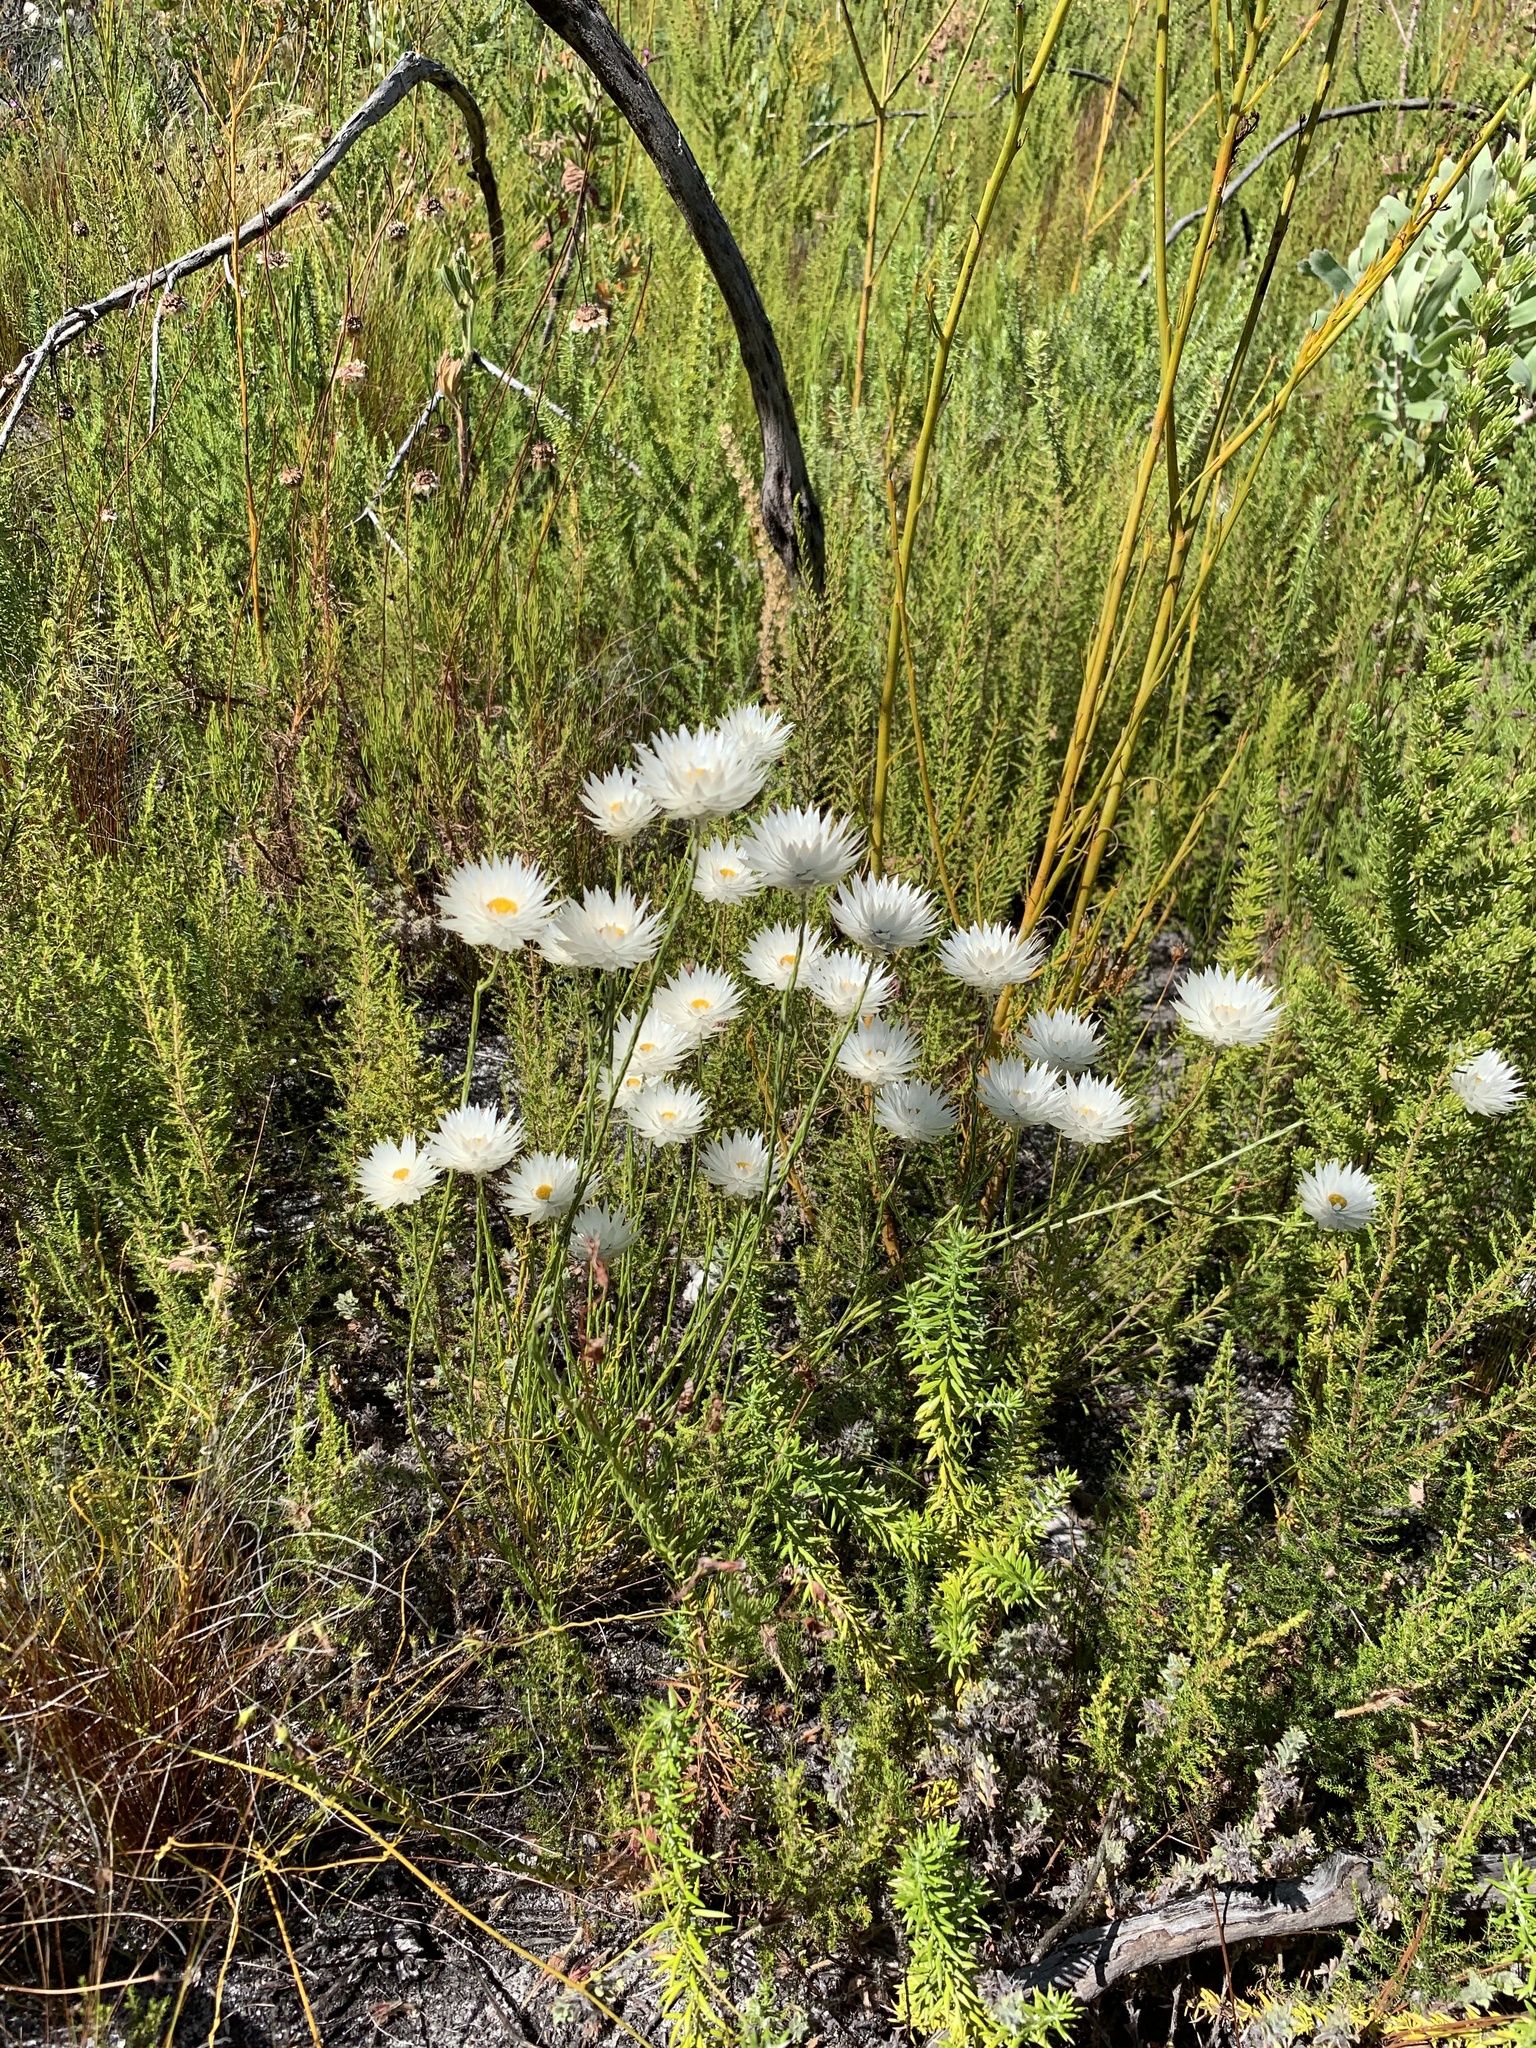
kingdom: Plantae
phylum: Tracheophyta
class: Magnoliopsida
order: Asterales
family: Asteraceae
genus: Edmondia
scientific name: Edmondia sesamoides
